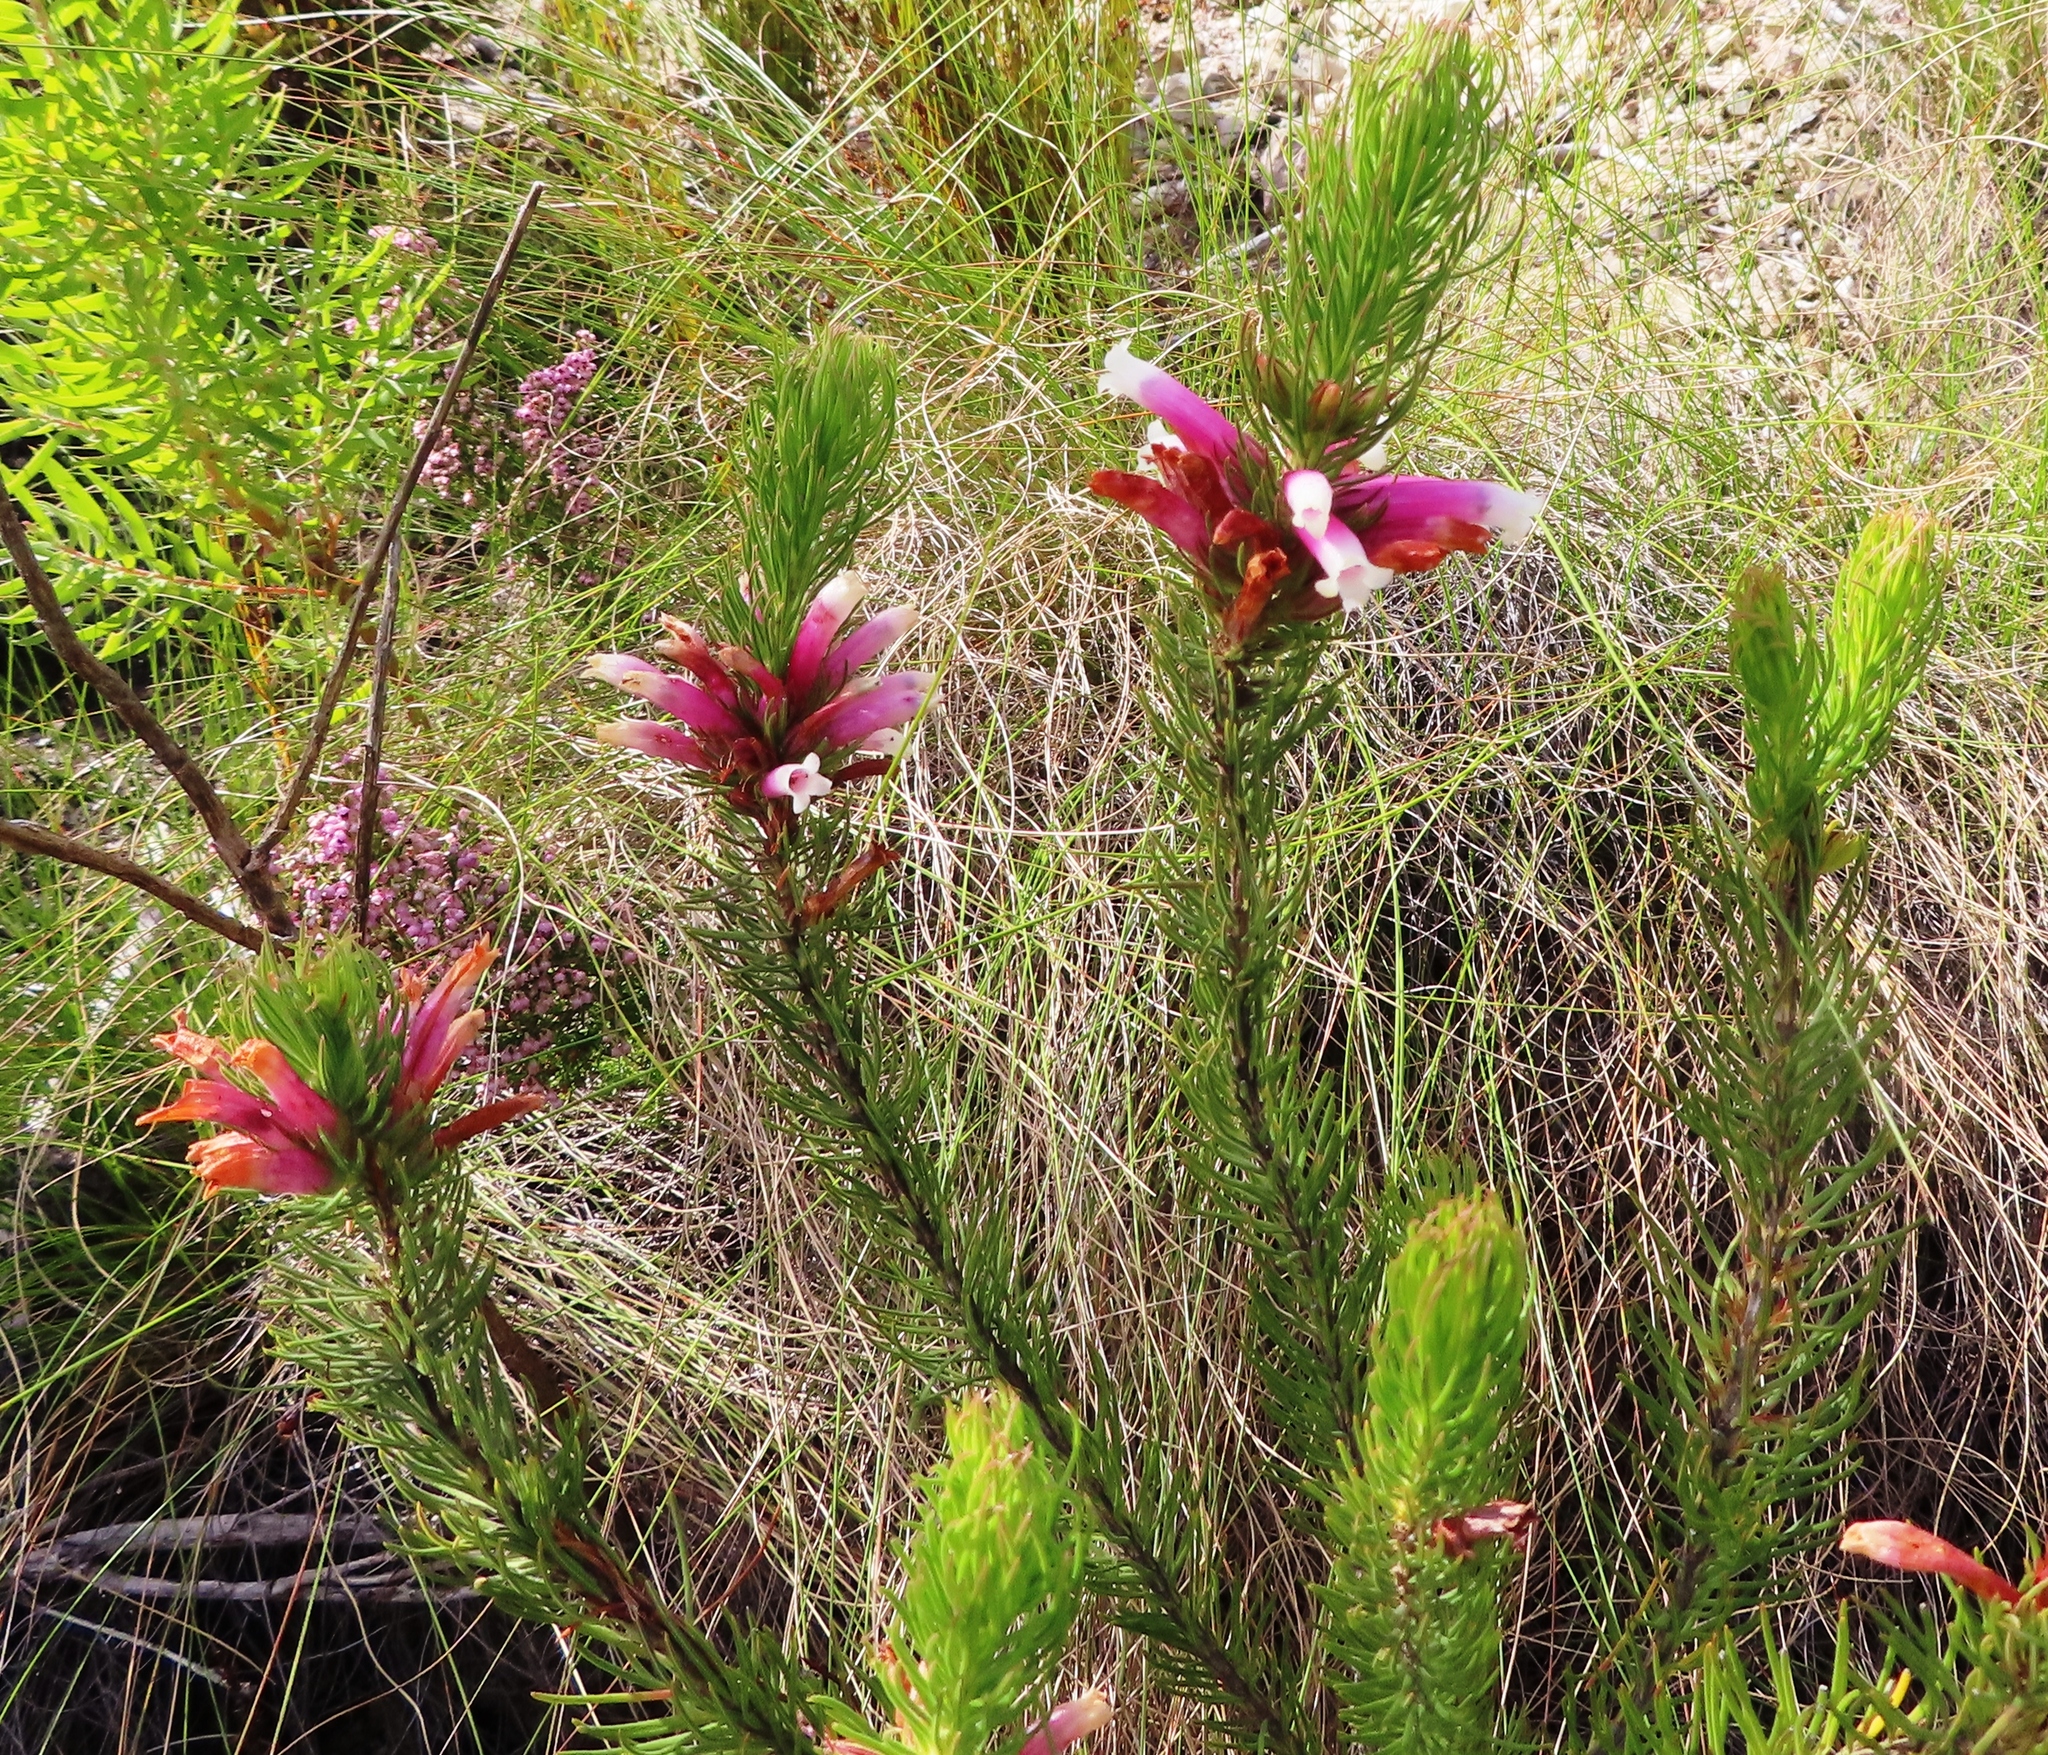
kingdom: Plantae
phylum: Tracheophyta
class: Magnoliopsida
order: Ericales
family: Ericaceae
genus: Erica
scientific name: Erica viscaria
